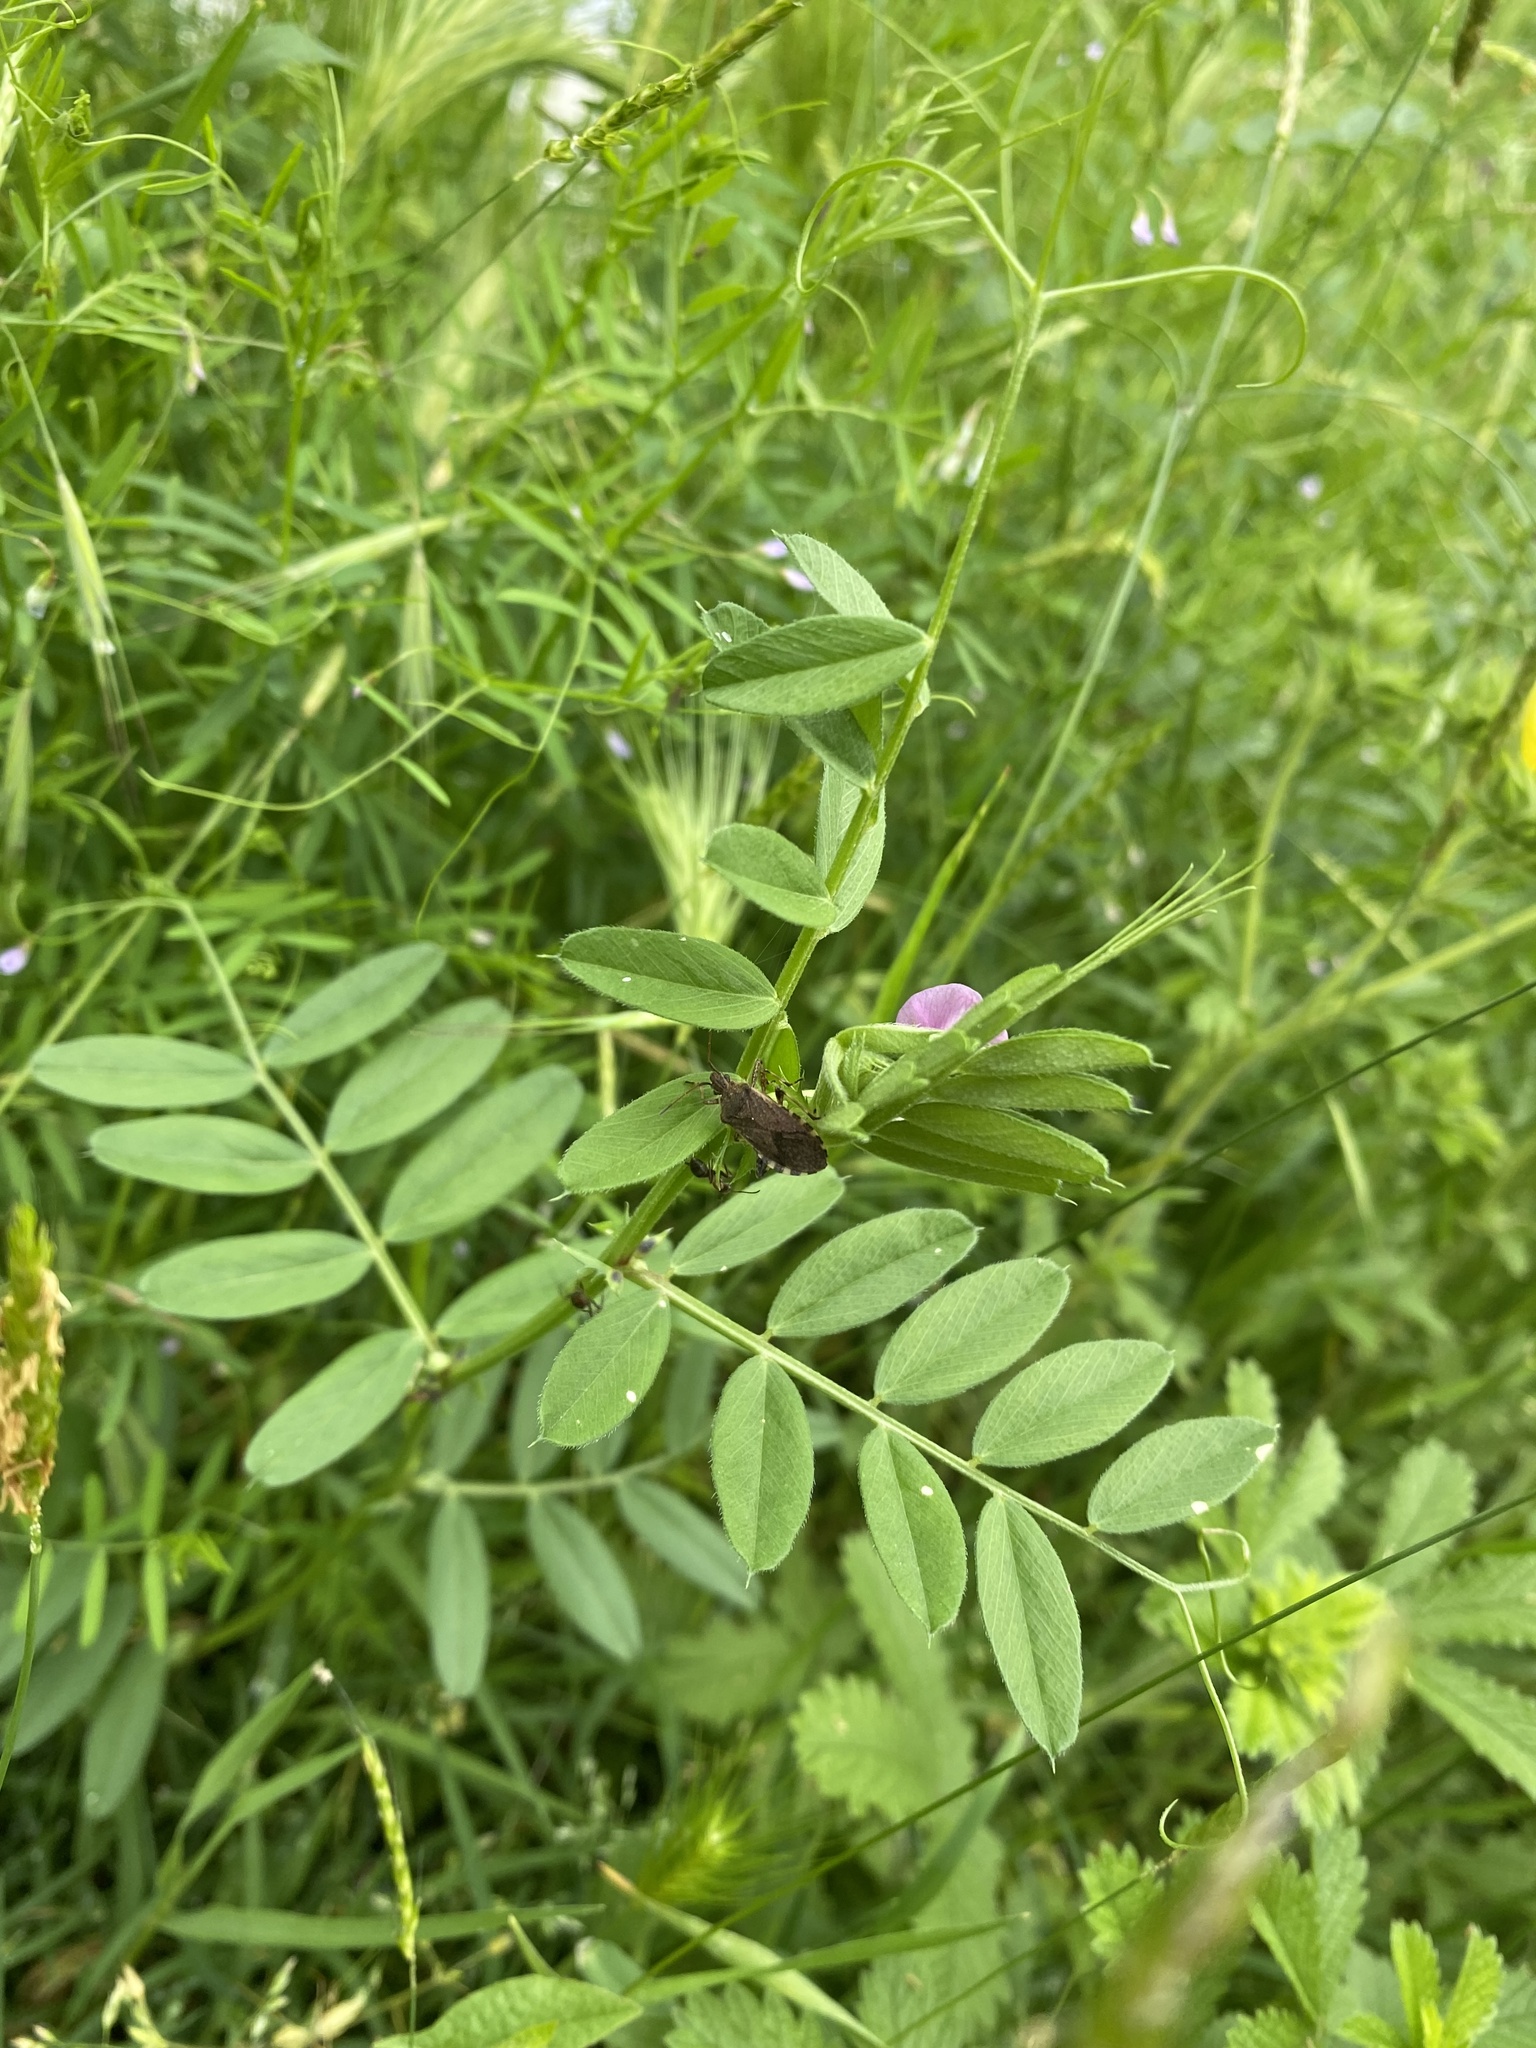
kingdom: Plantae
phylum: Tracheophyta
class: Magnoliopsida
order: Fabales
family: Fabaceae
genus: Vicia
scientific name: Vicia sativa
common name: Garden vetch
